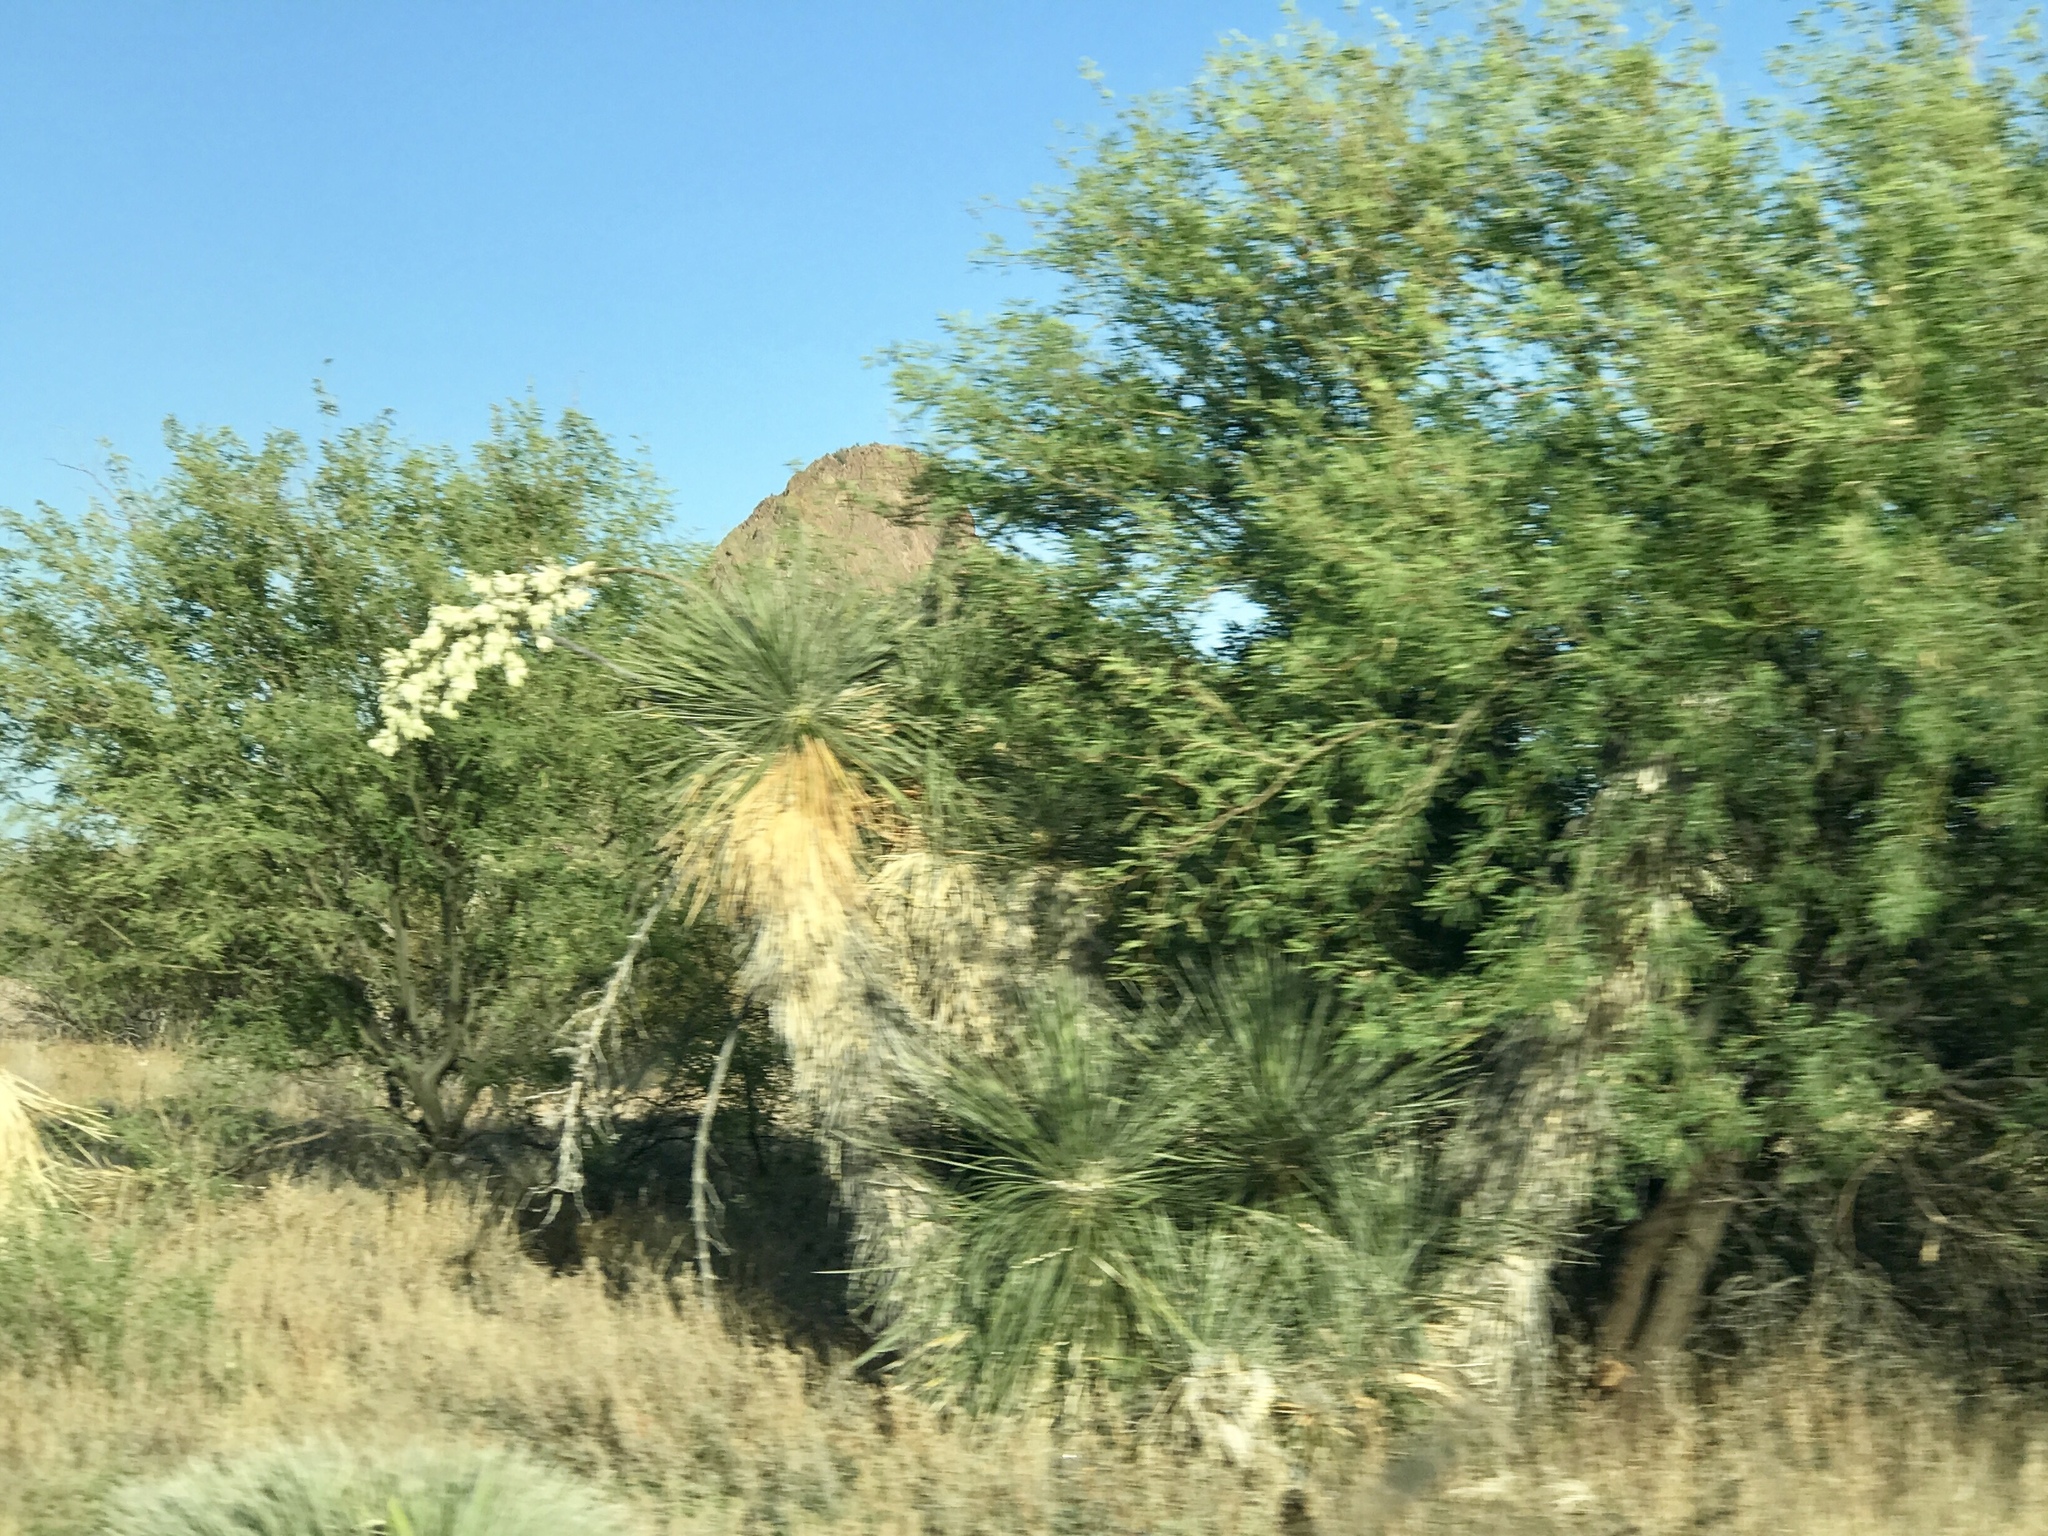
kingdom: Plantae
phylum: Tracheophyta
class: Liliopsida
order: Asparagales
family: Asparagaceae
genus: Yucca
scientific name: Yucca elata
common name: Palmella
